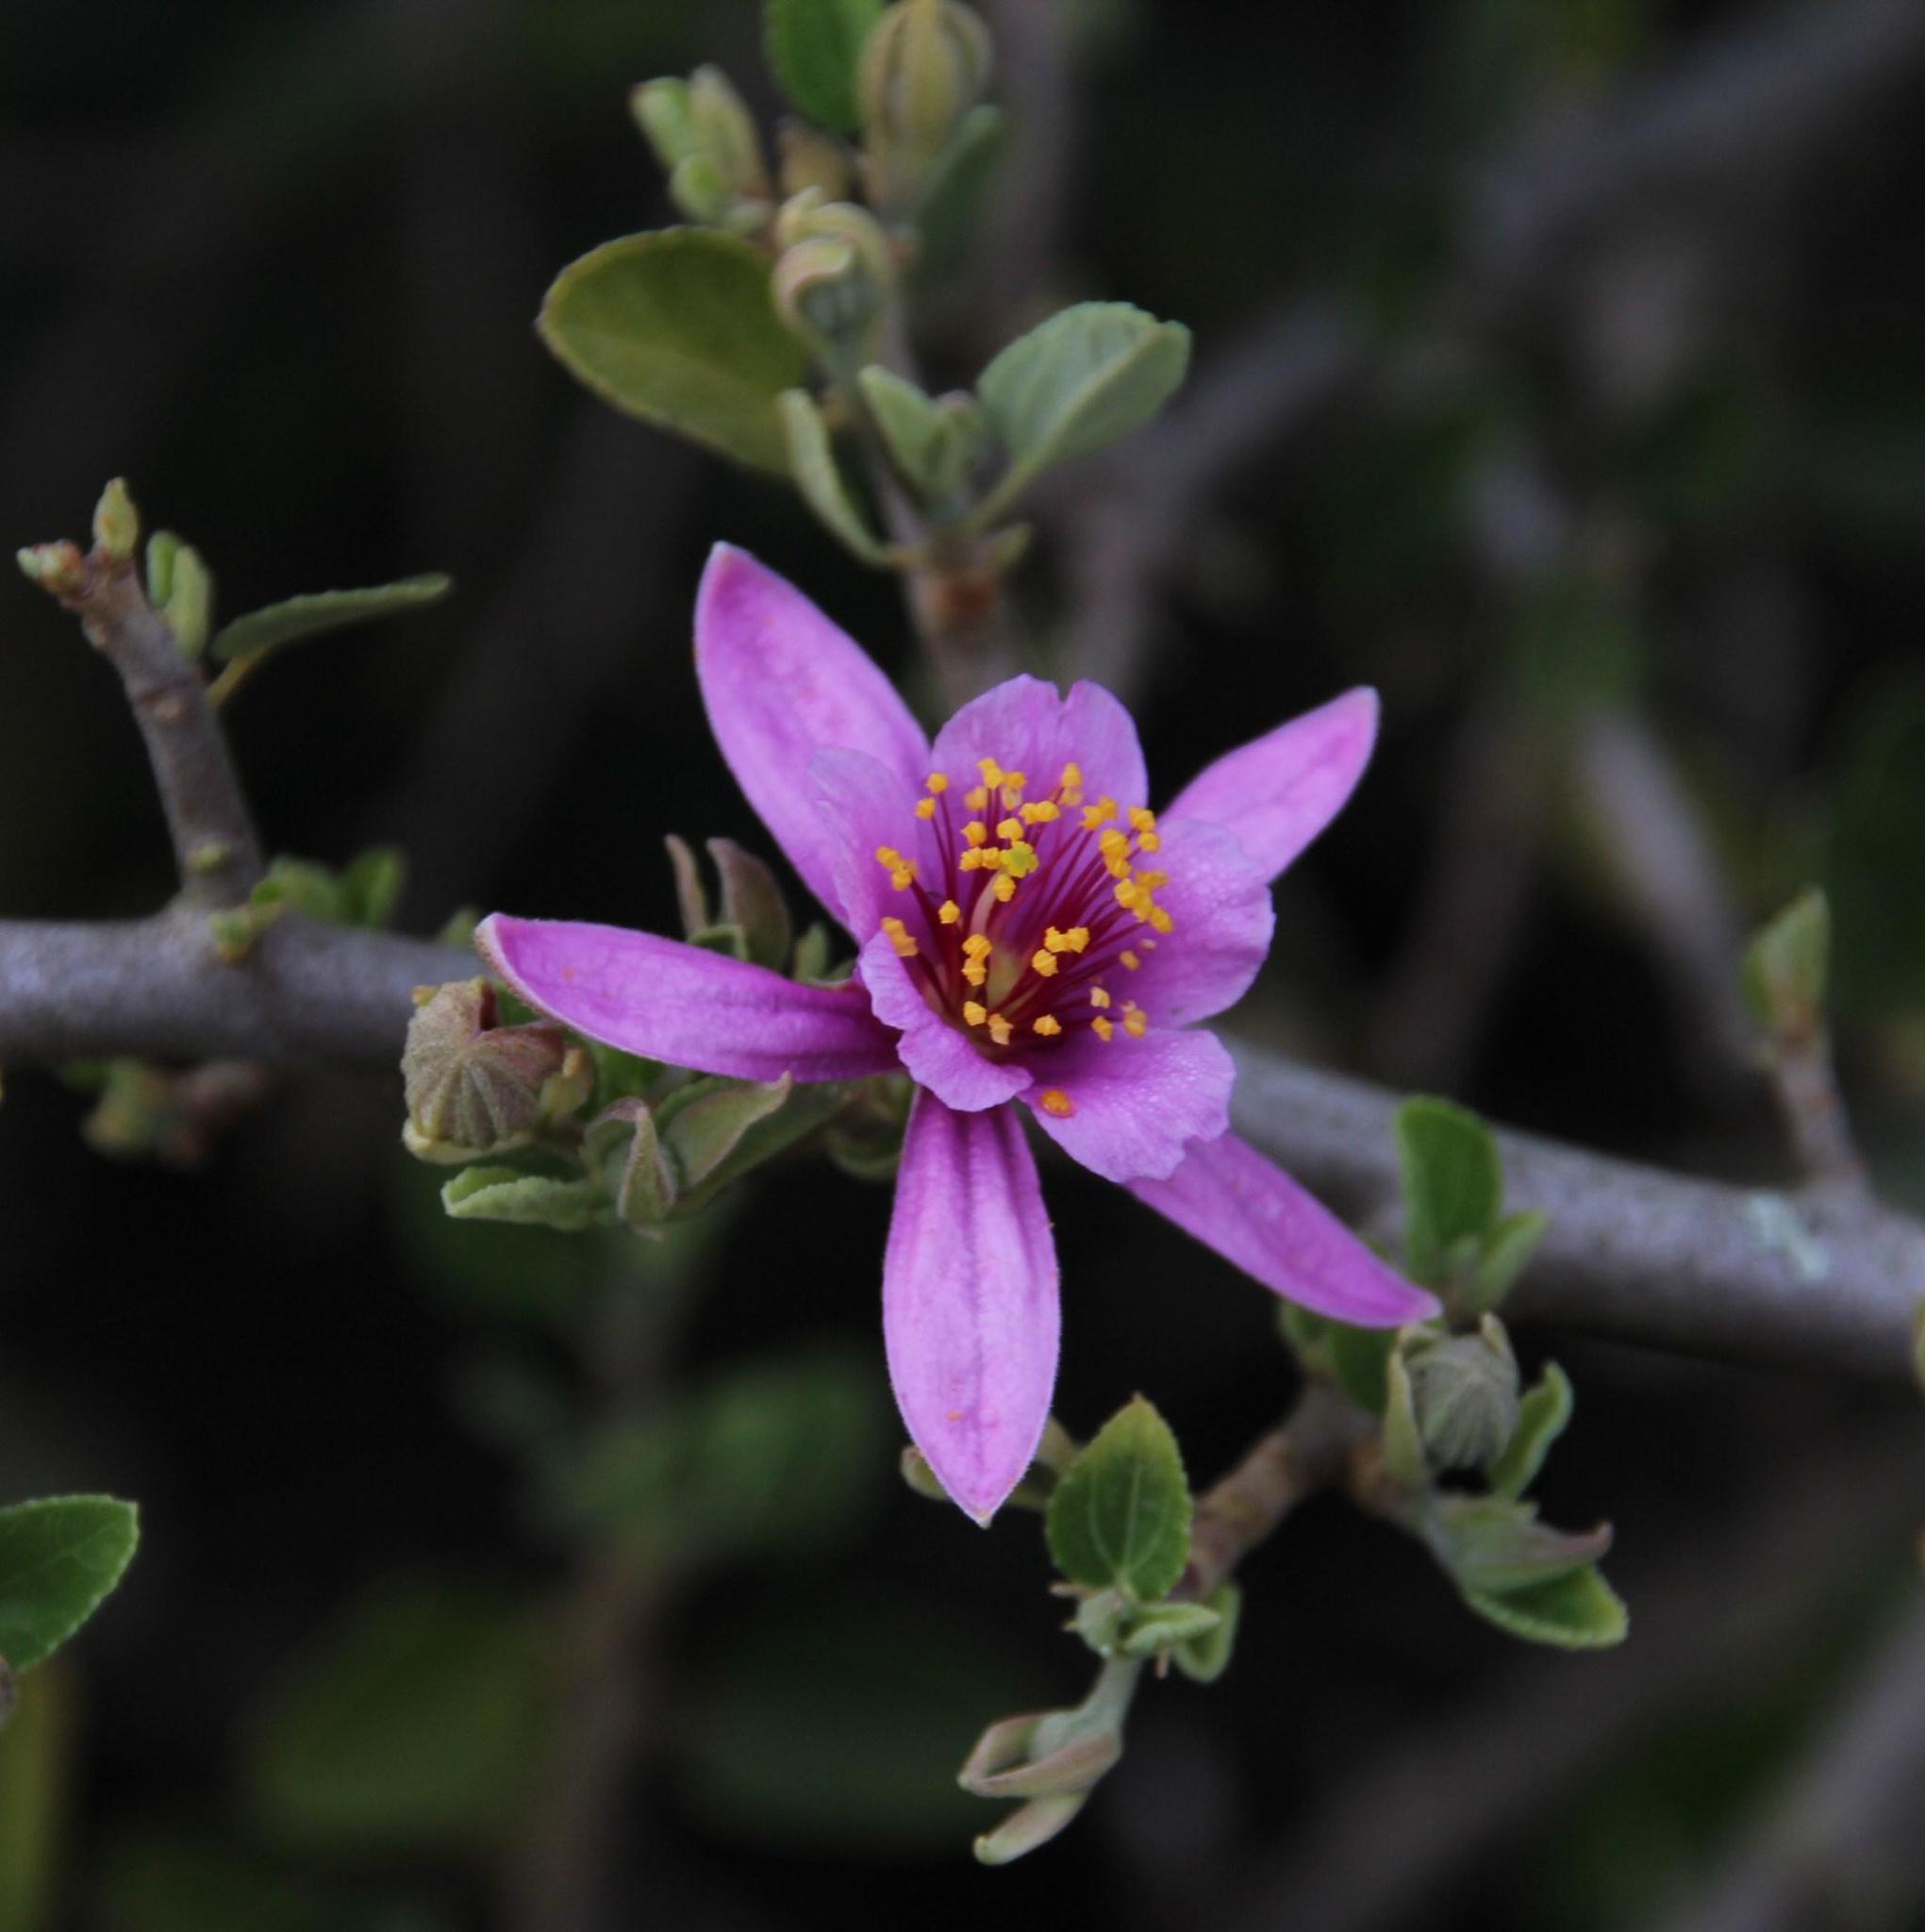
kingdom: Plantae
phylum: Tracheophyta
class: Magnoliopsida
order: Malvales
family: Malvaceae
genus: Grewia
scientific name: Grewia robusta
